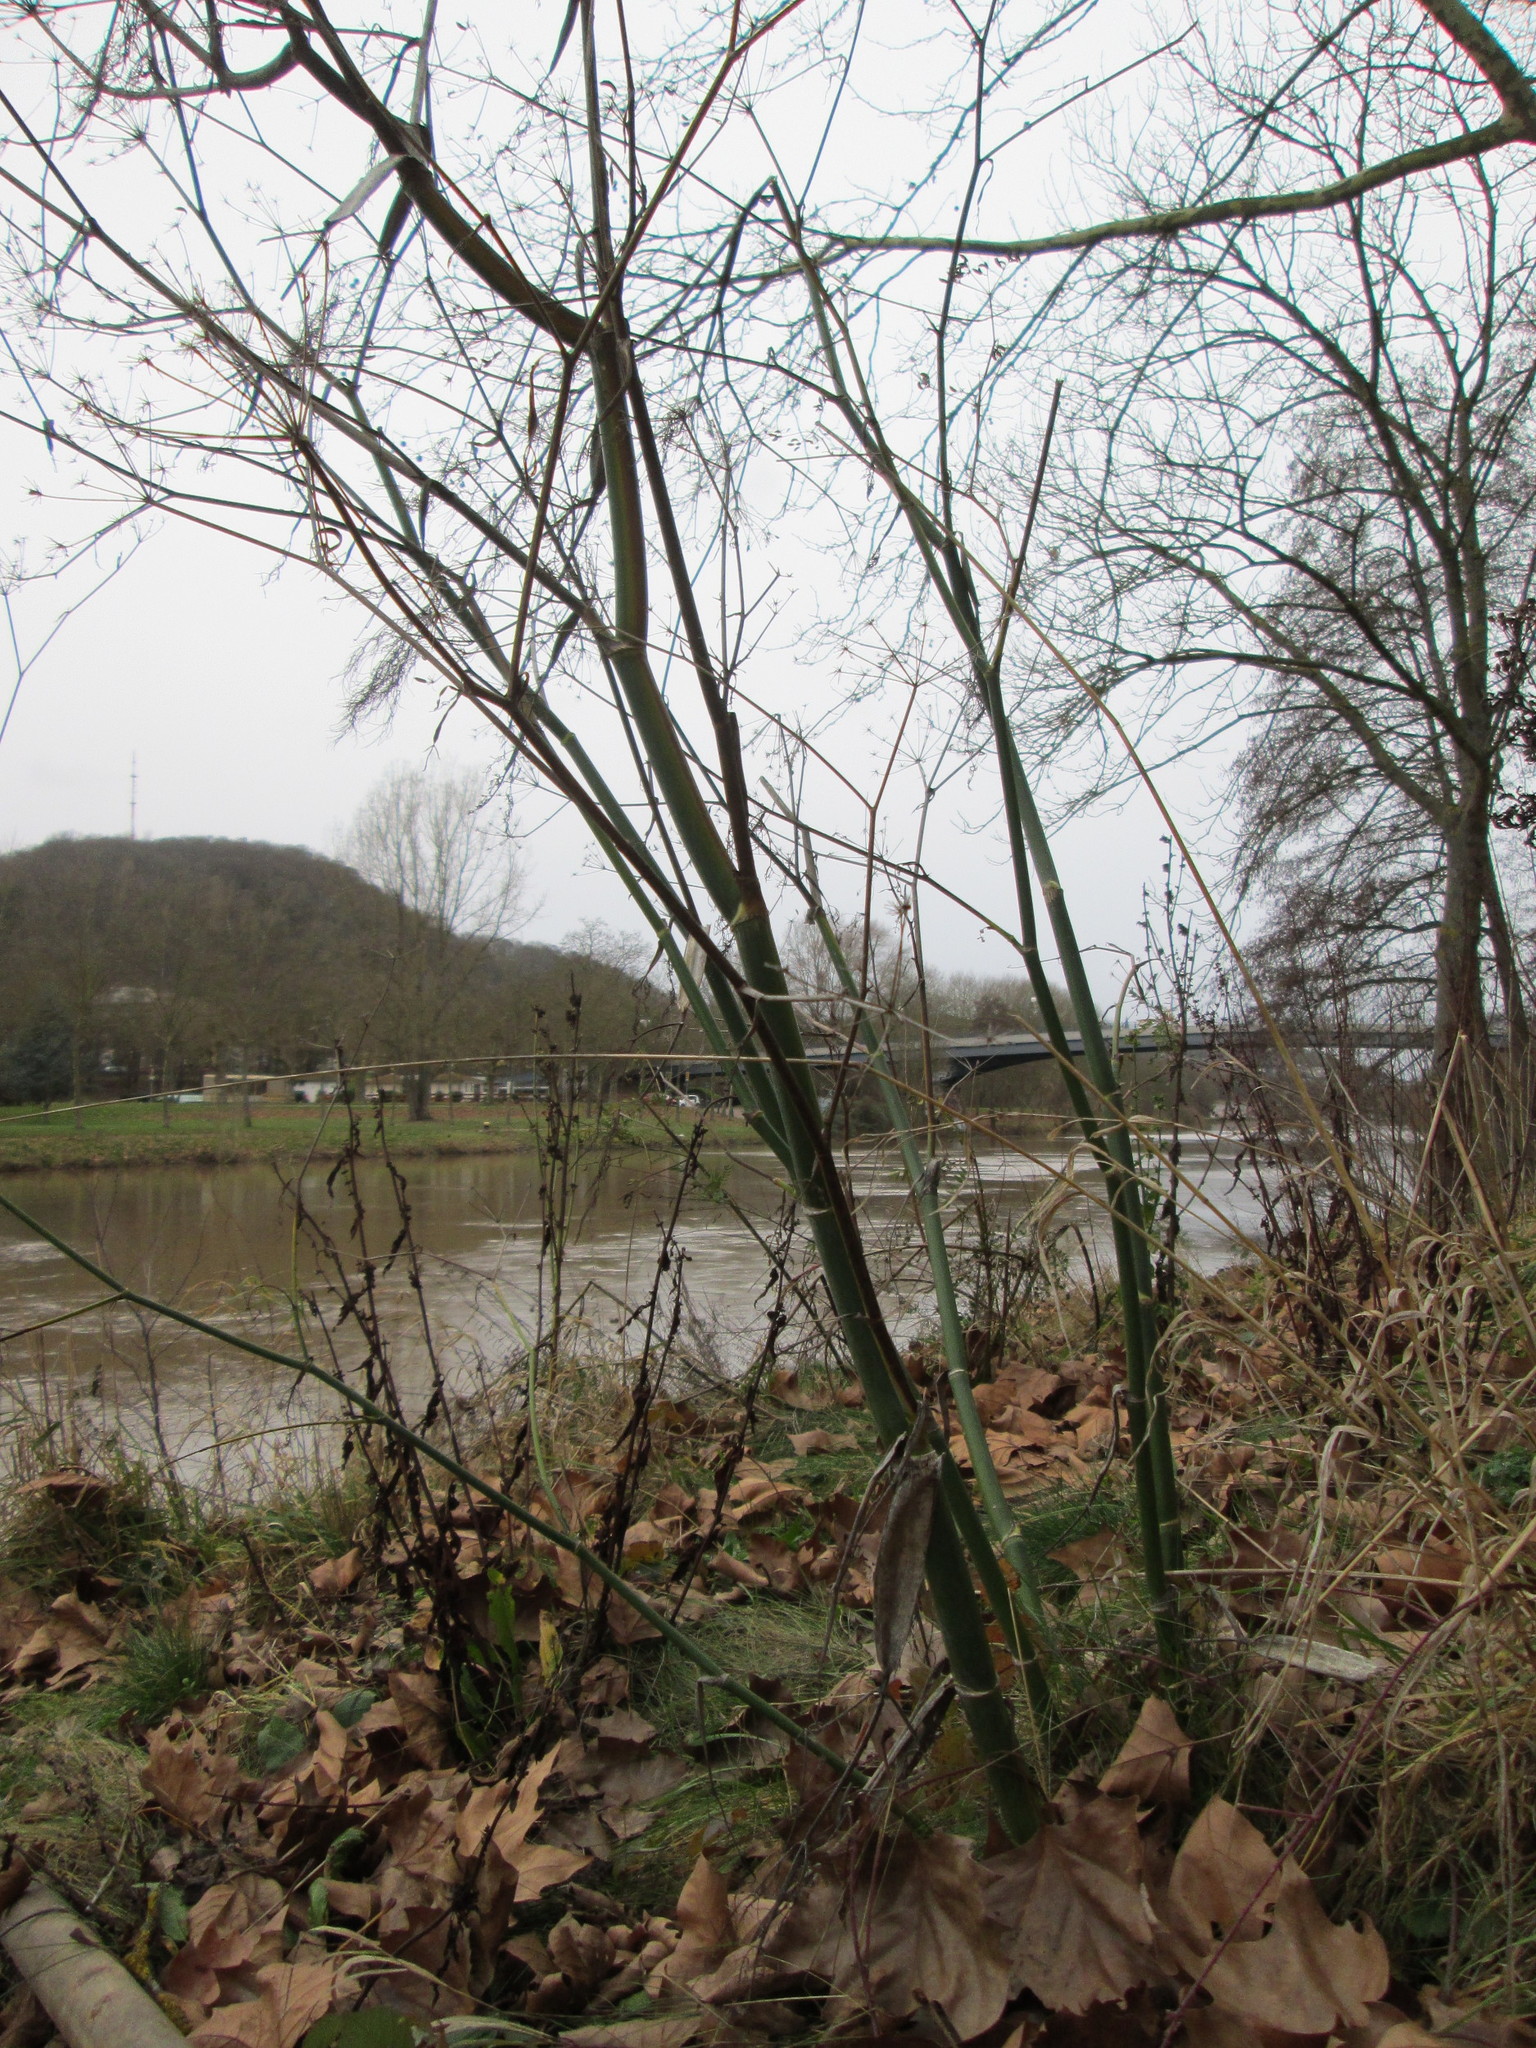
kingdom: Plantae
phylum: Tracheophyta
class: Magnoliopsida
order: Apiales
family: Apiaceae
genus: Anethum
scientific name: Anethum graveolens
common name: Dill
